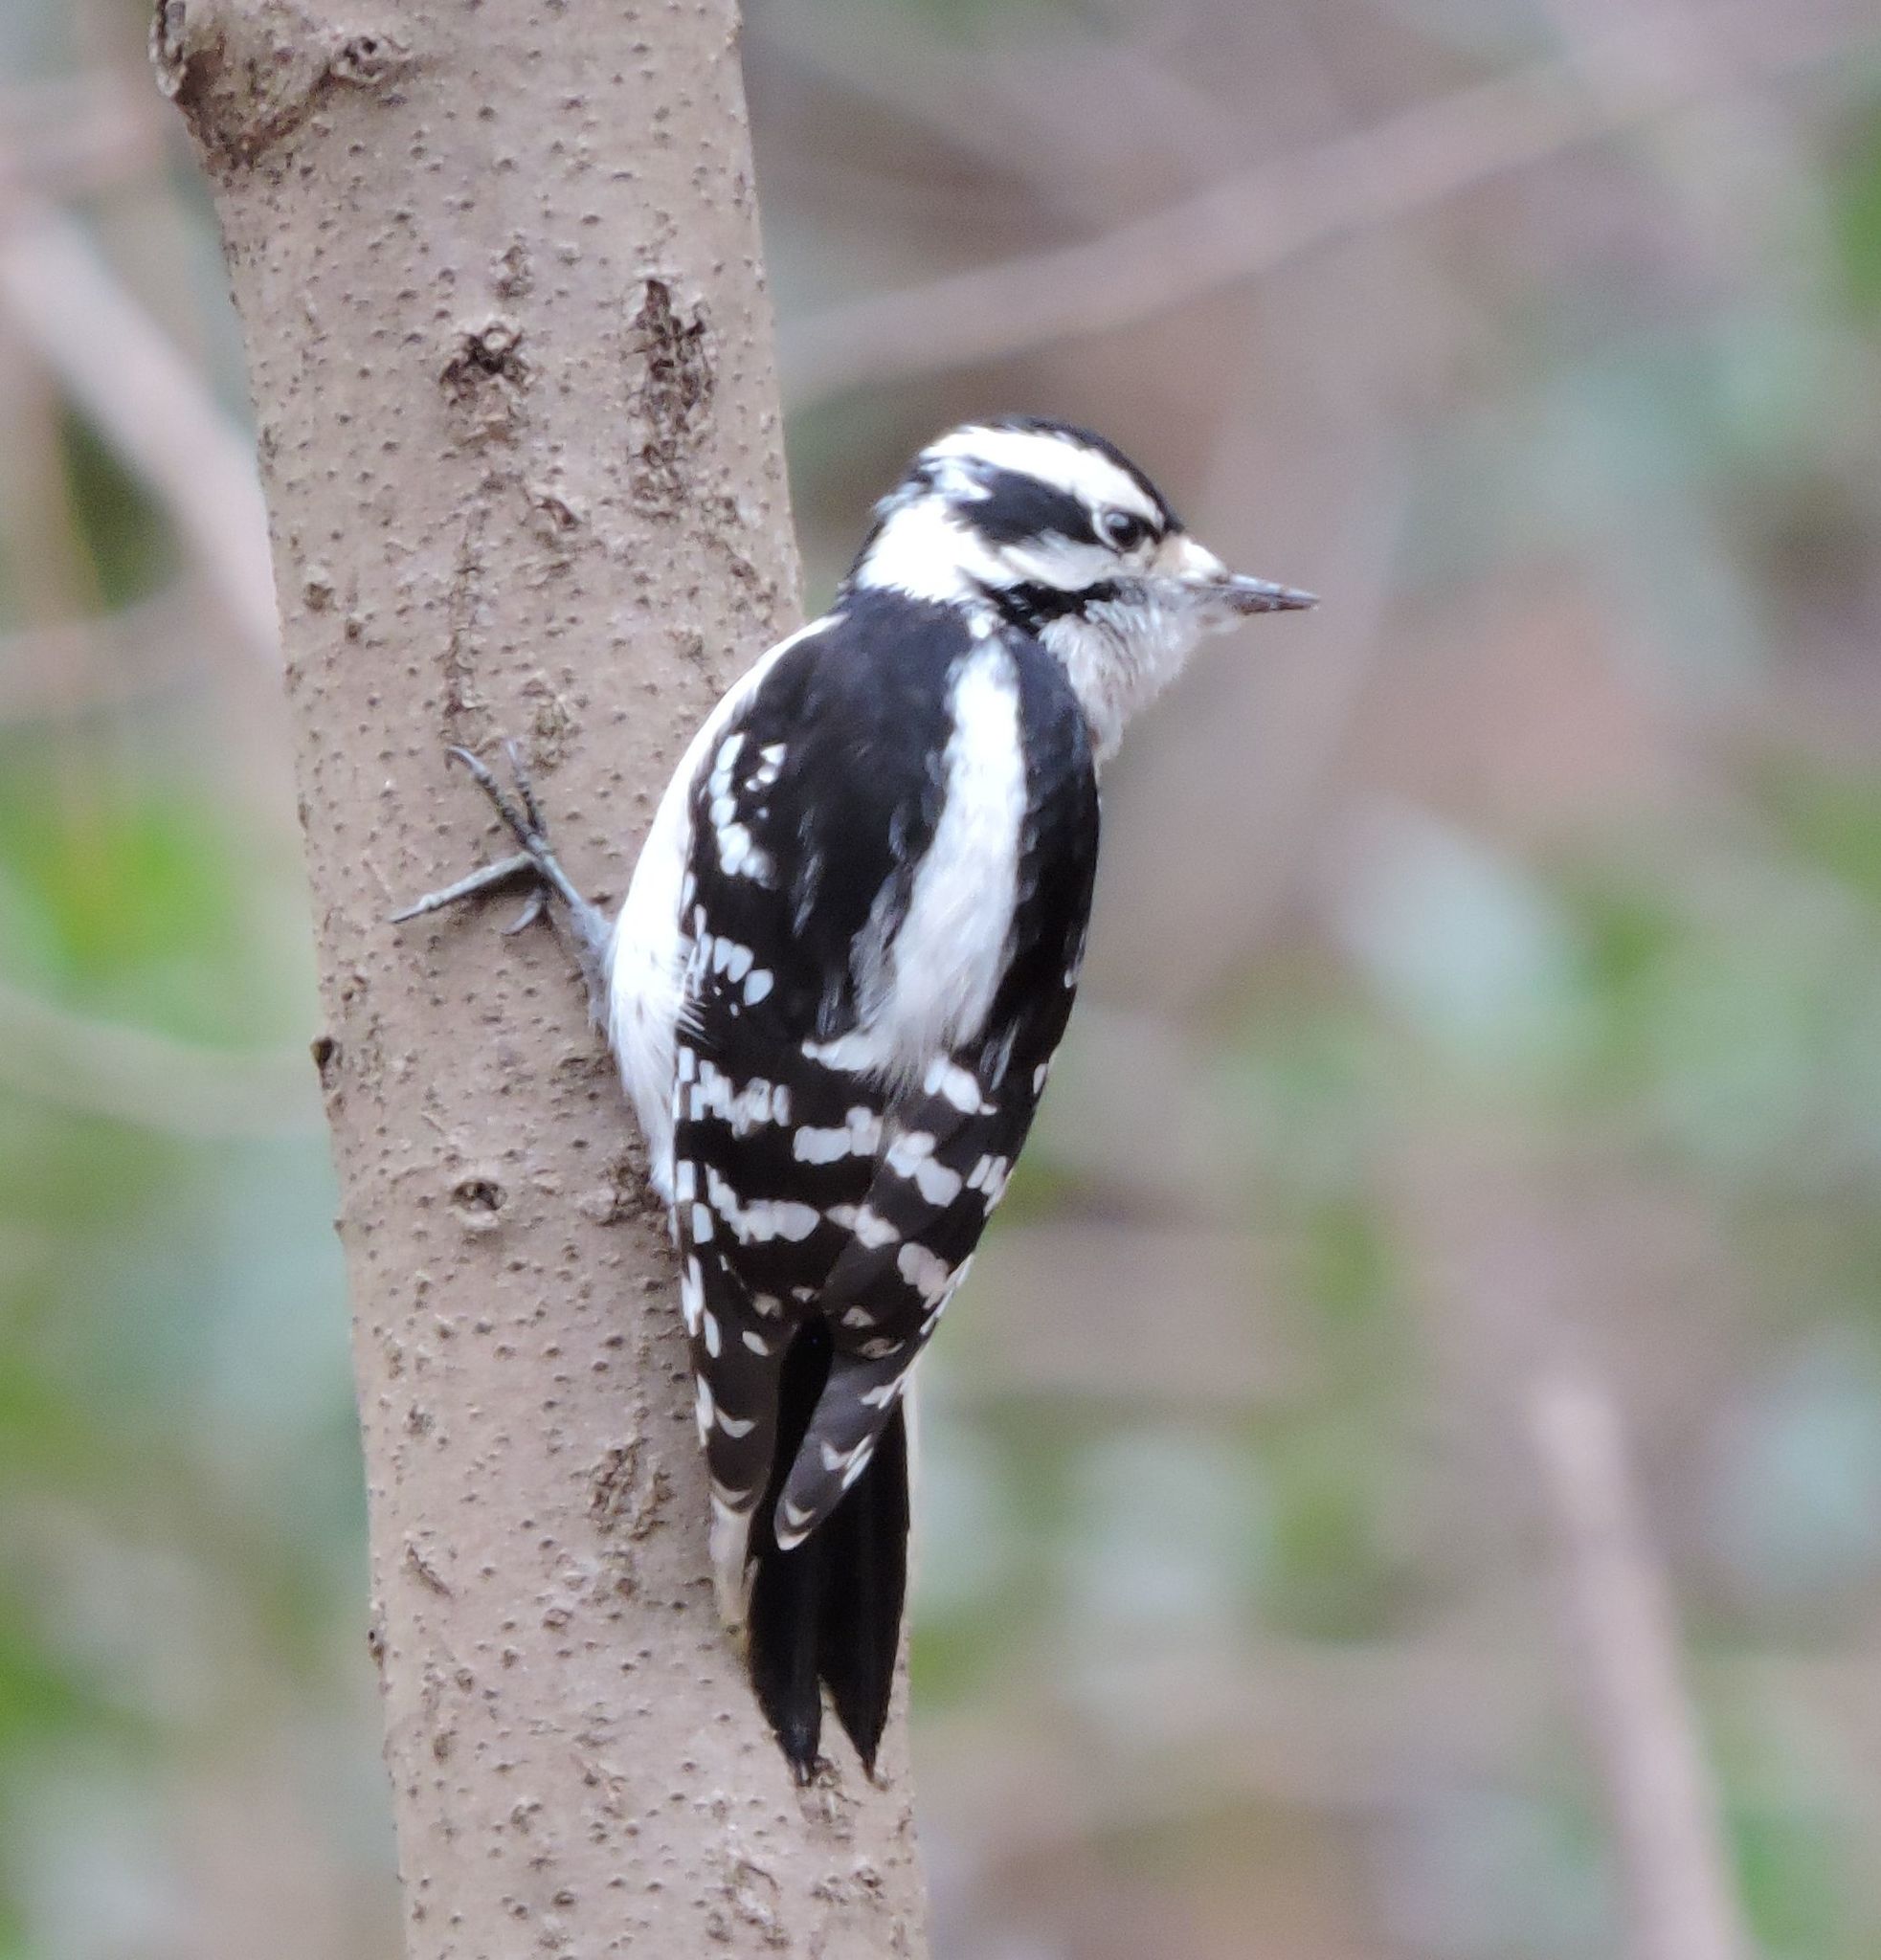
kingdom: Animalia
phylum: Chordata
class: Aves
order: Piciformes
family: Picidae
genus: Dryobates
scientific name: Dryobates pubescens
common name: Downy woodpecker
